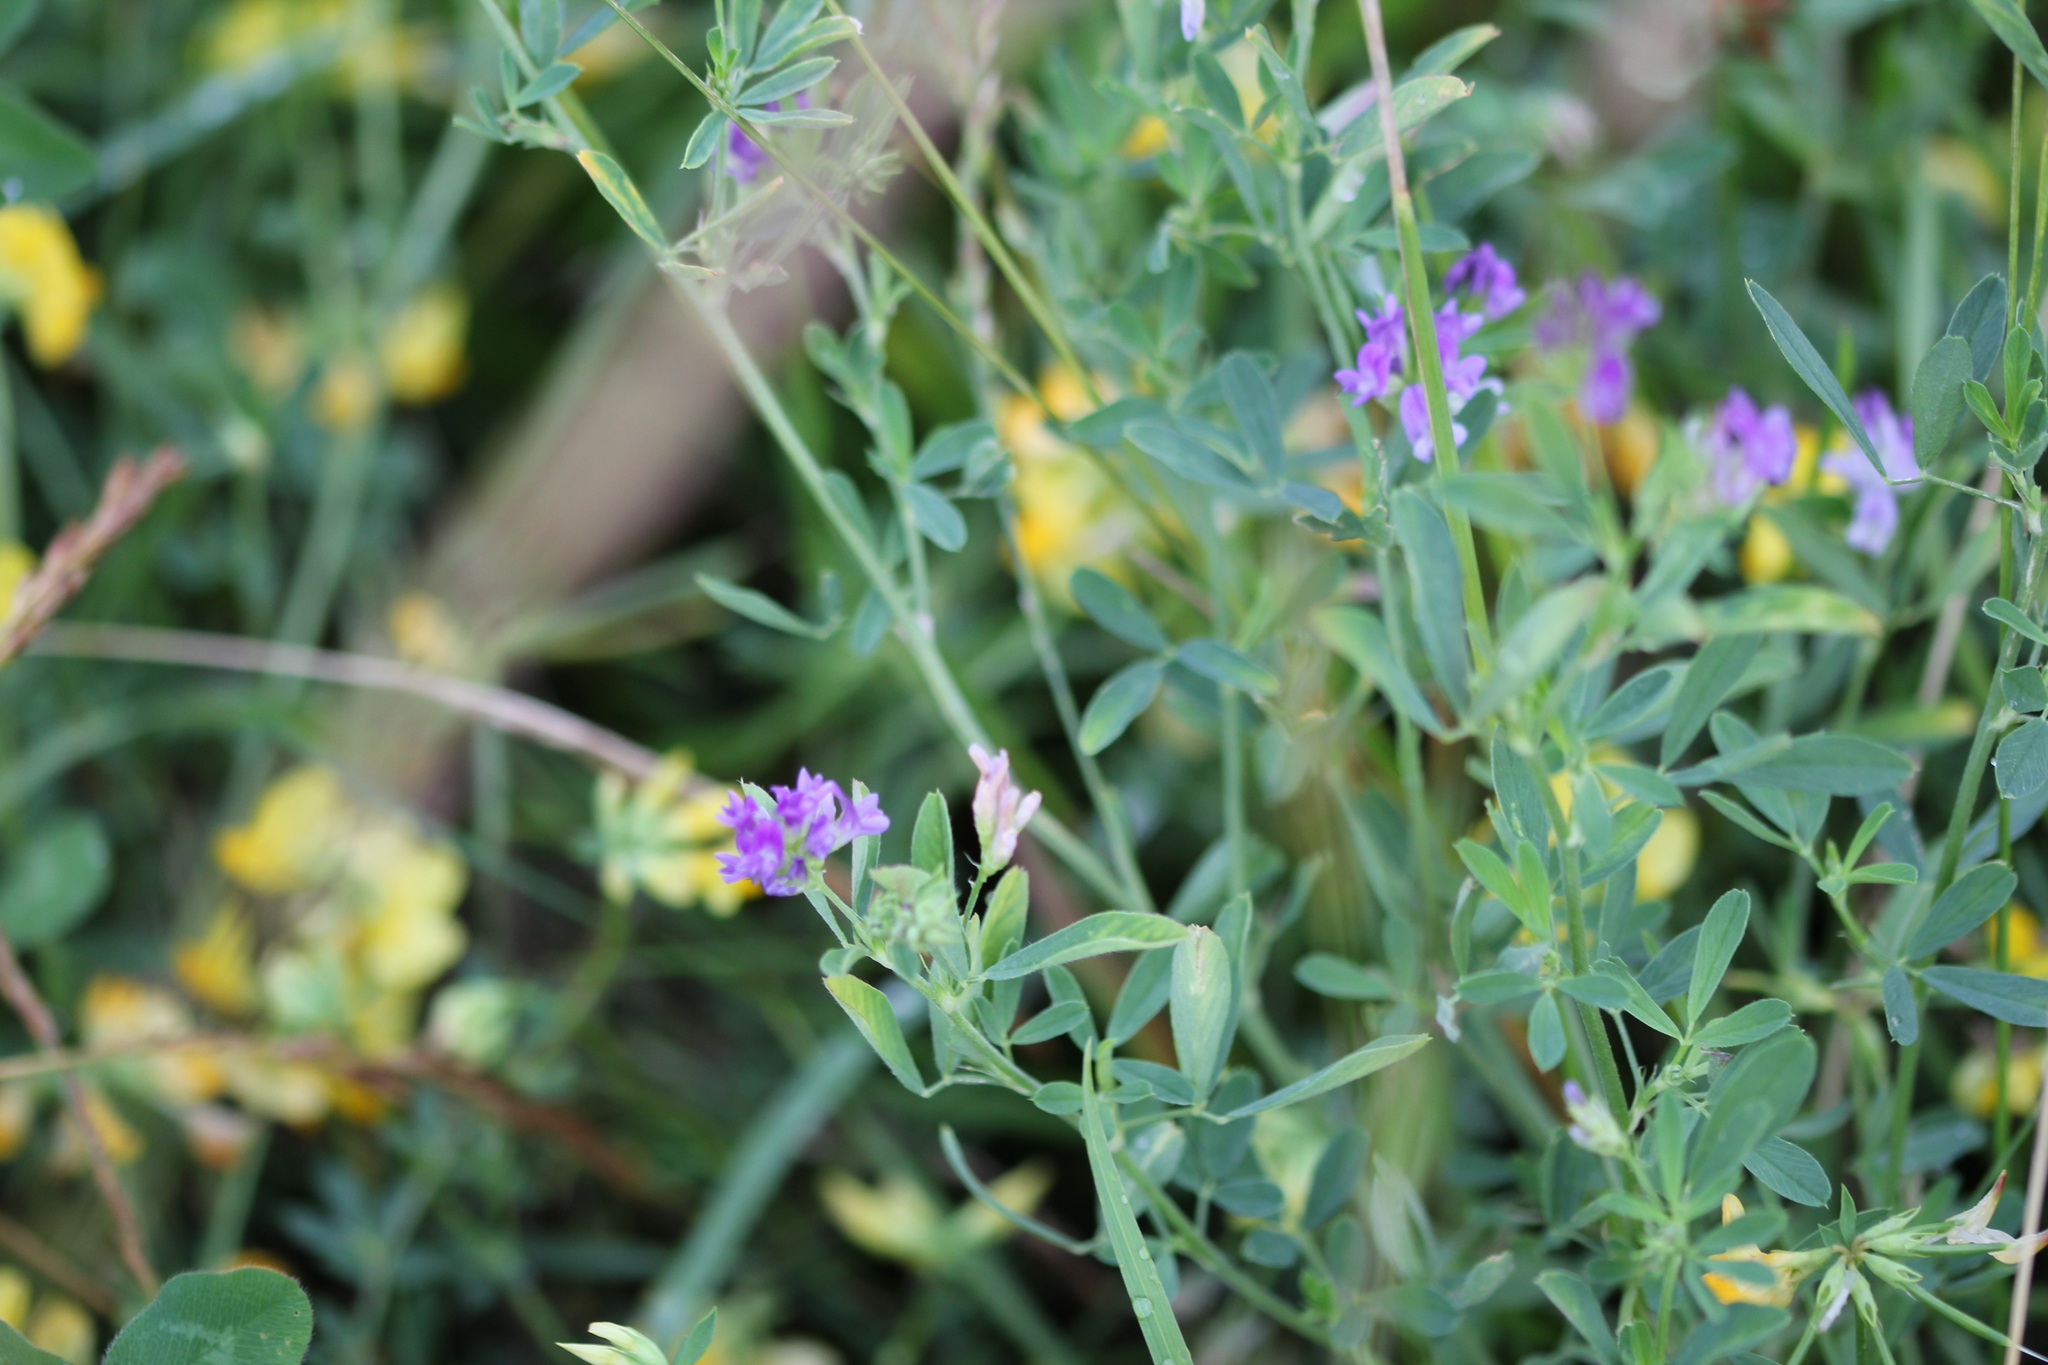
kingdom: Plantae
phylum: Tracheophyta
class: Magnoliopsida
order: Fabales
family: Fabaceae
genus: Medicago
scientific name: Medicago sativa
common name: Alfalfa
